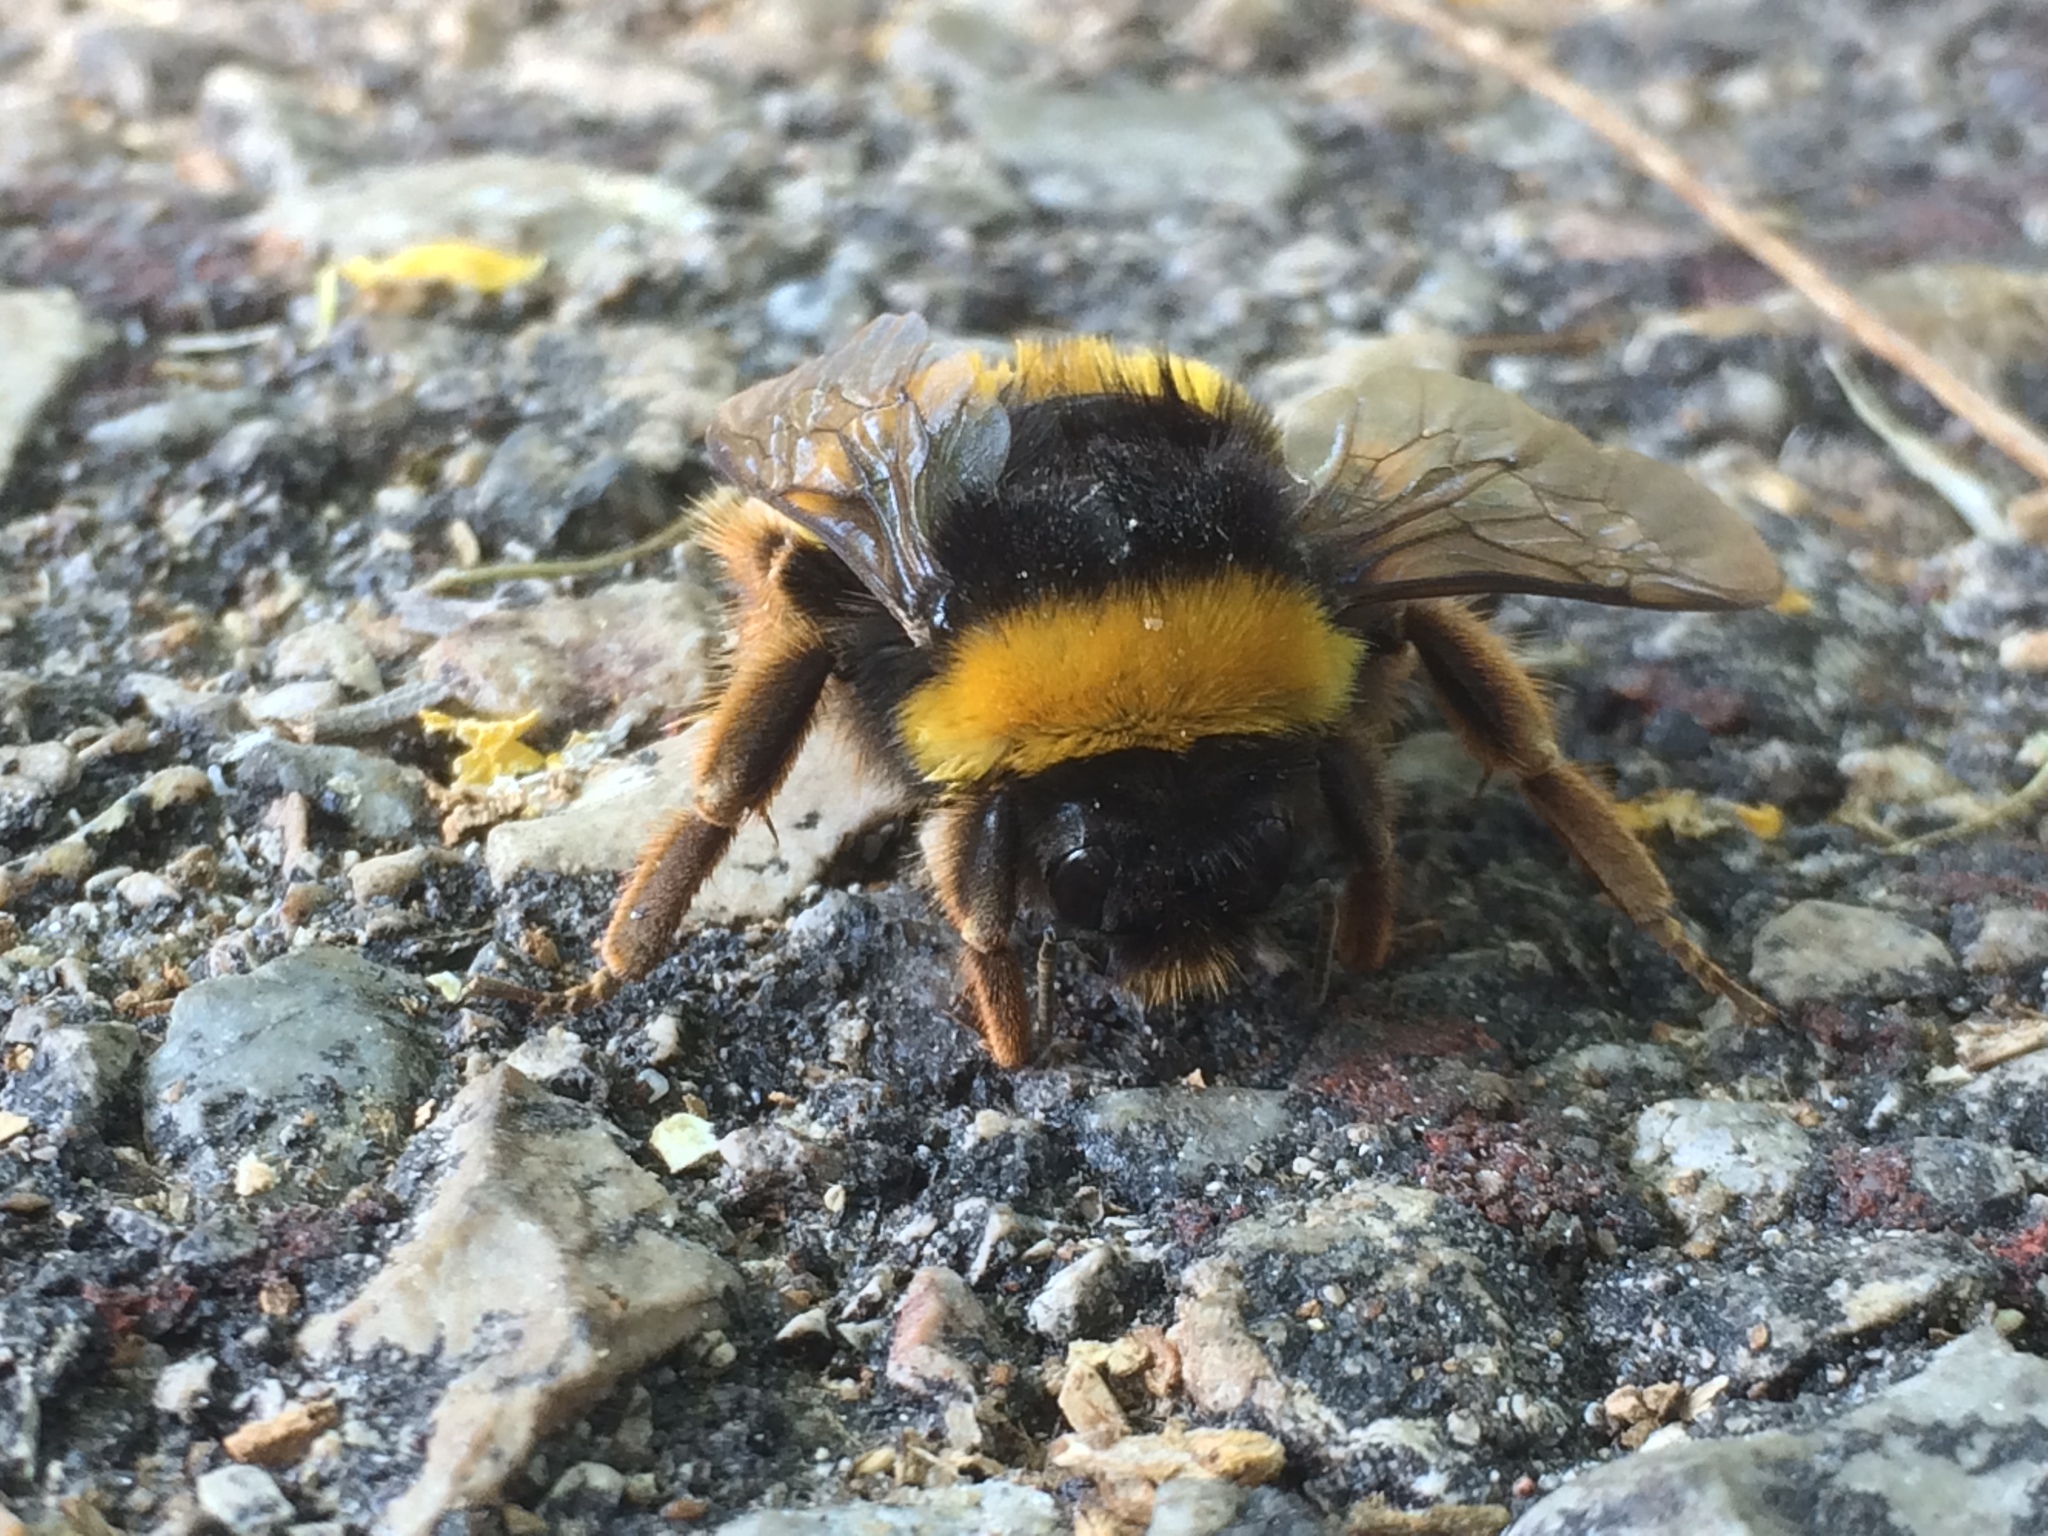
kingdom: Animalia
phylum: Arthropoda
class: Insecta
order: Hymenoptera
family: Apidae
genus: Bombus
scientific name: Bombus terrestris
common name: Buff-tailed bumblebee
